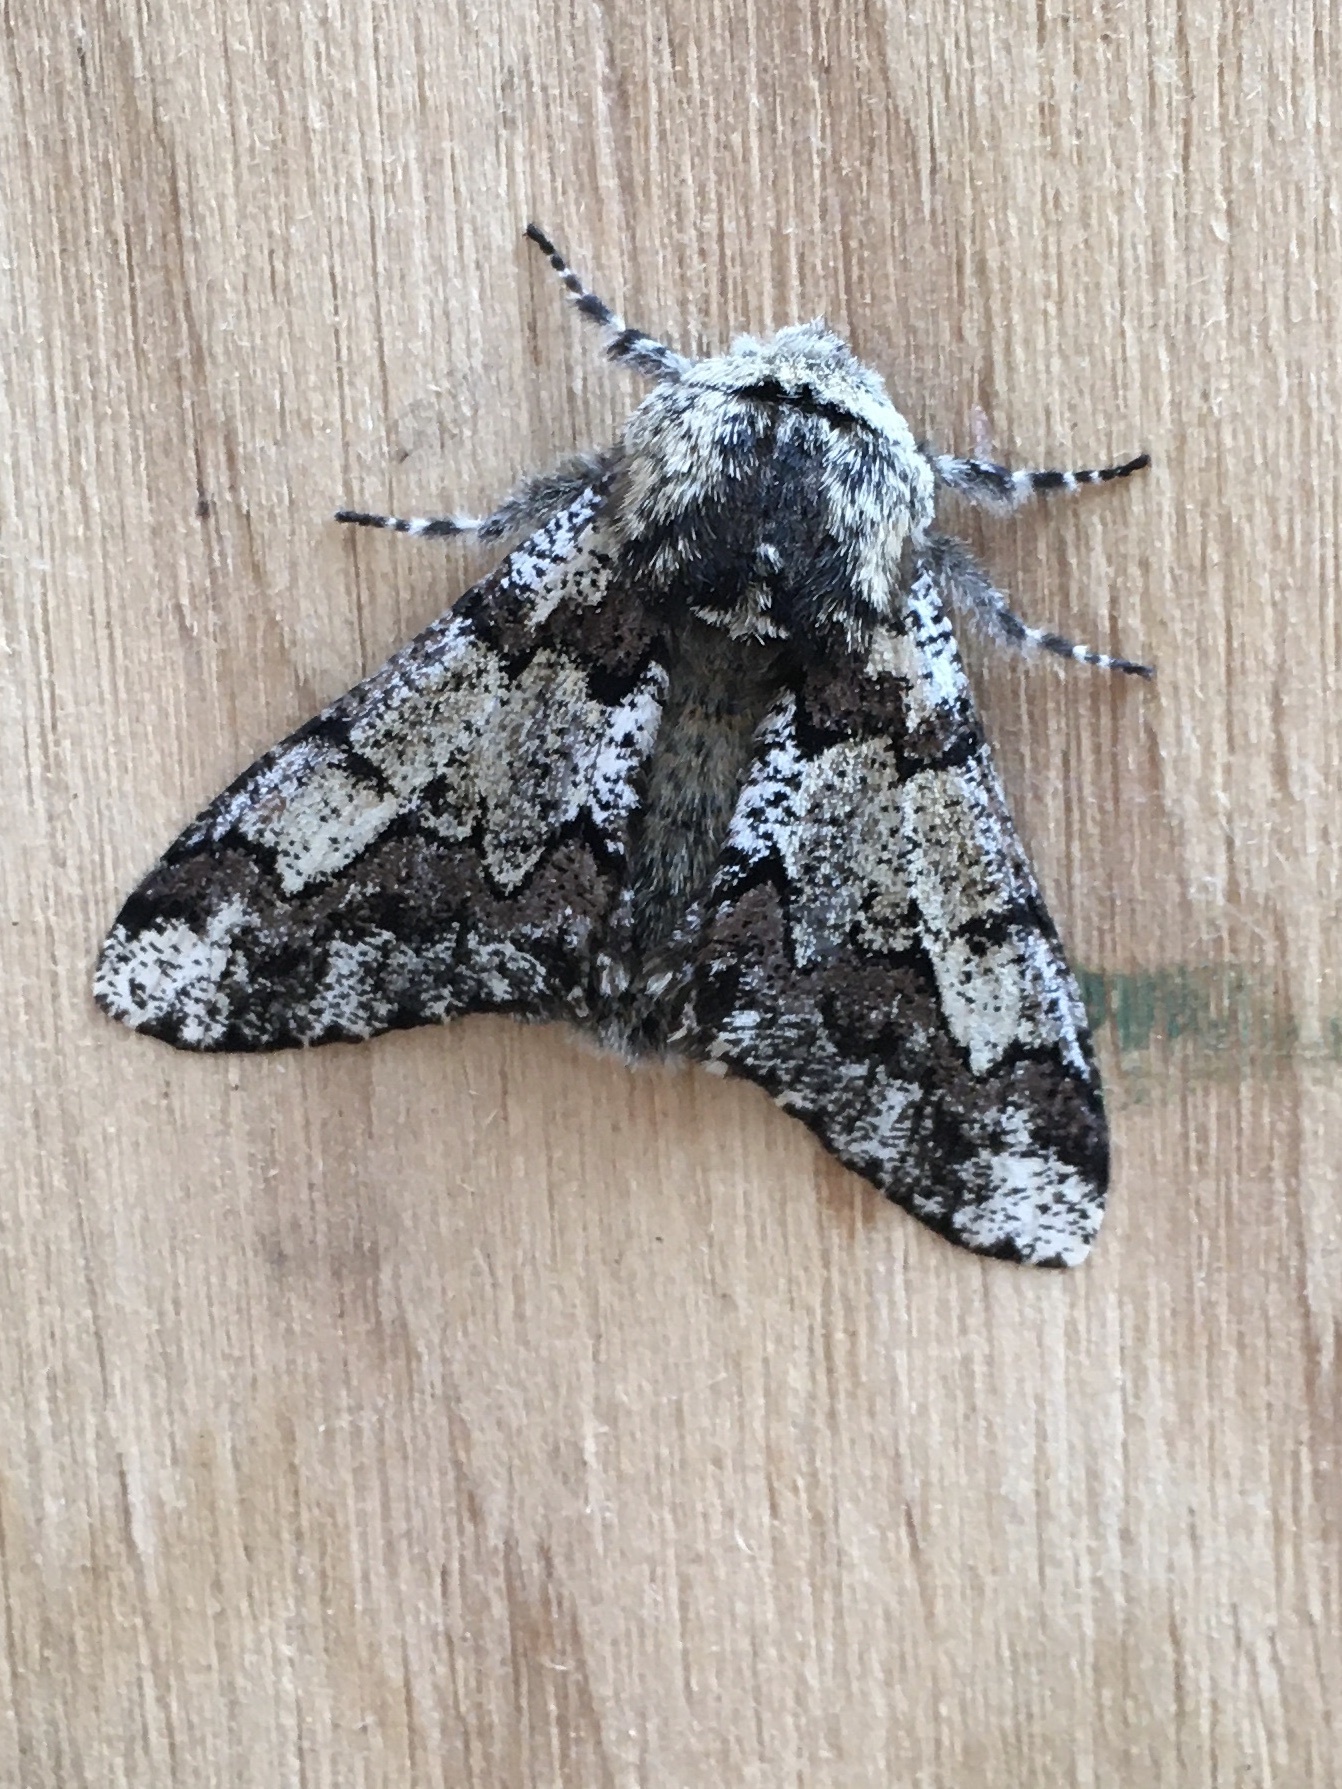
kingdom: Animalia
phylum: Arthropoda
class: Insecta
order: Lepidoptera
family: Geometridae
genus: Biston
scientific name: Biston strataria
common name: Oak beauty
